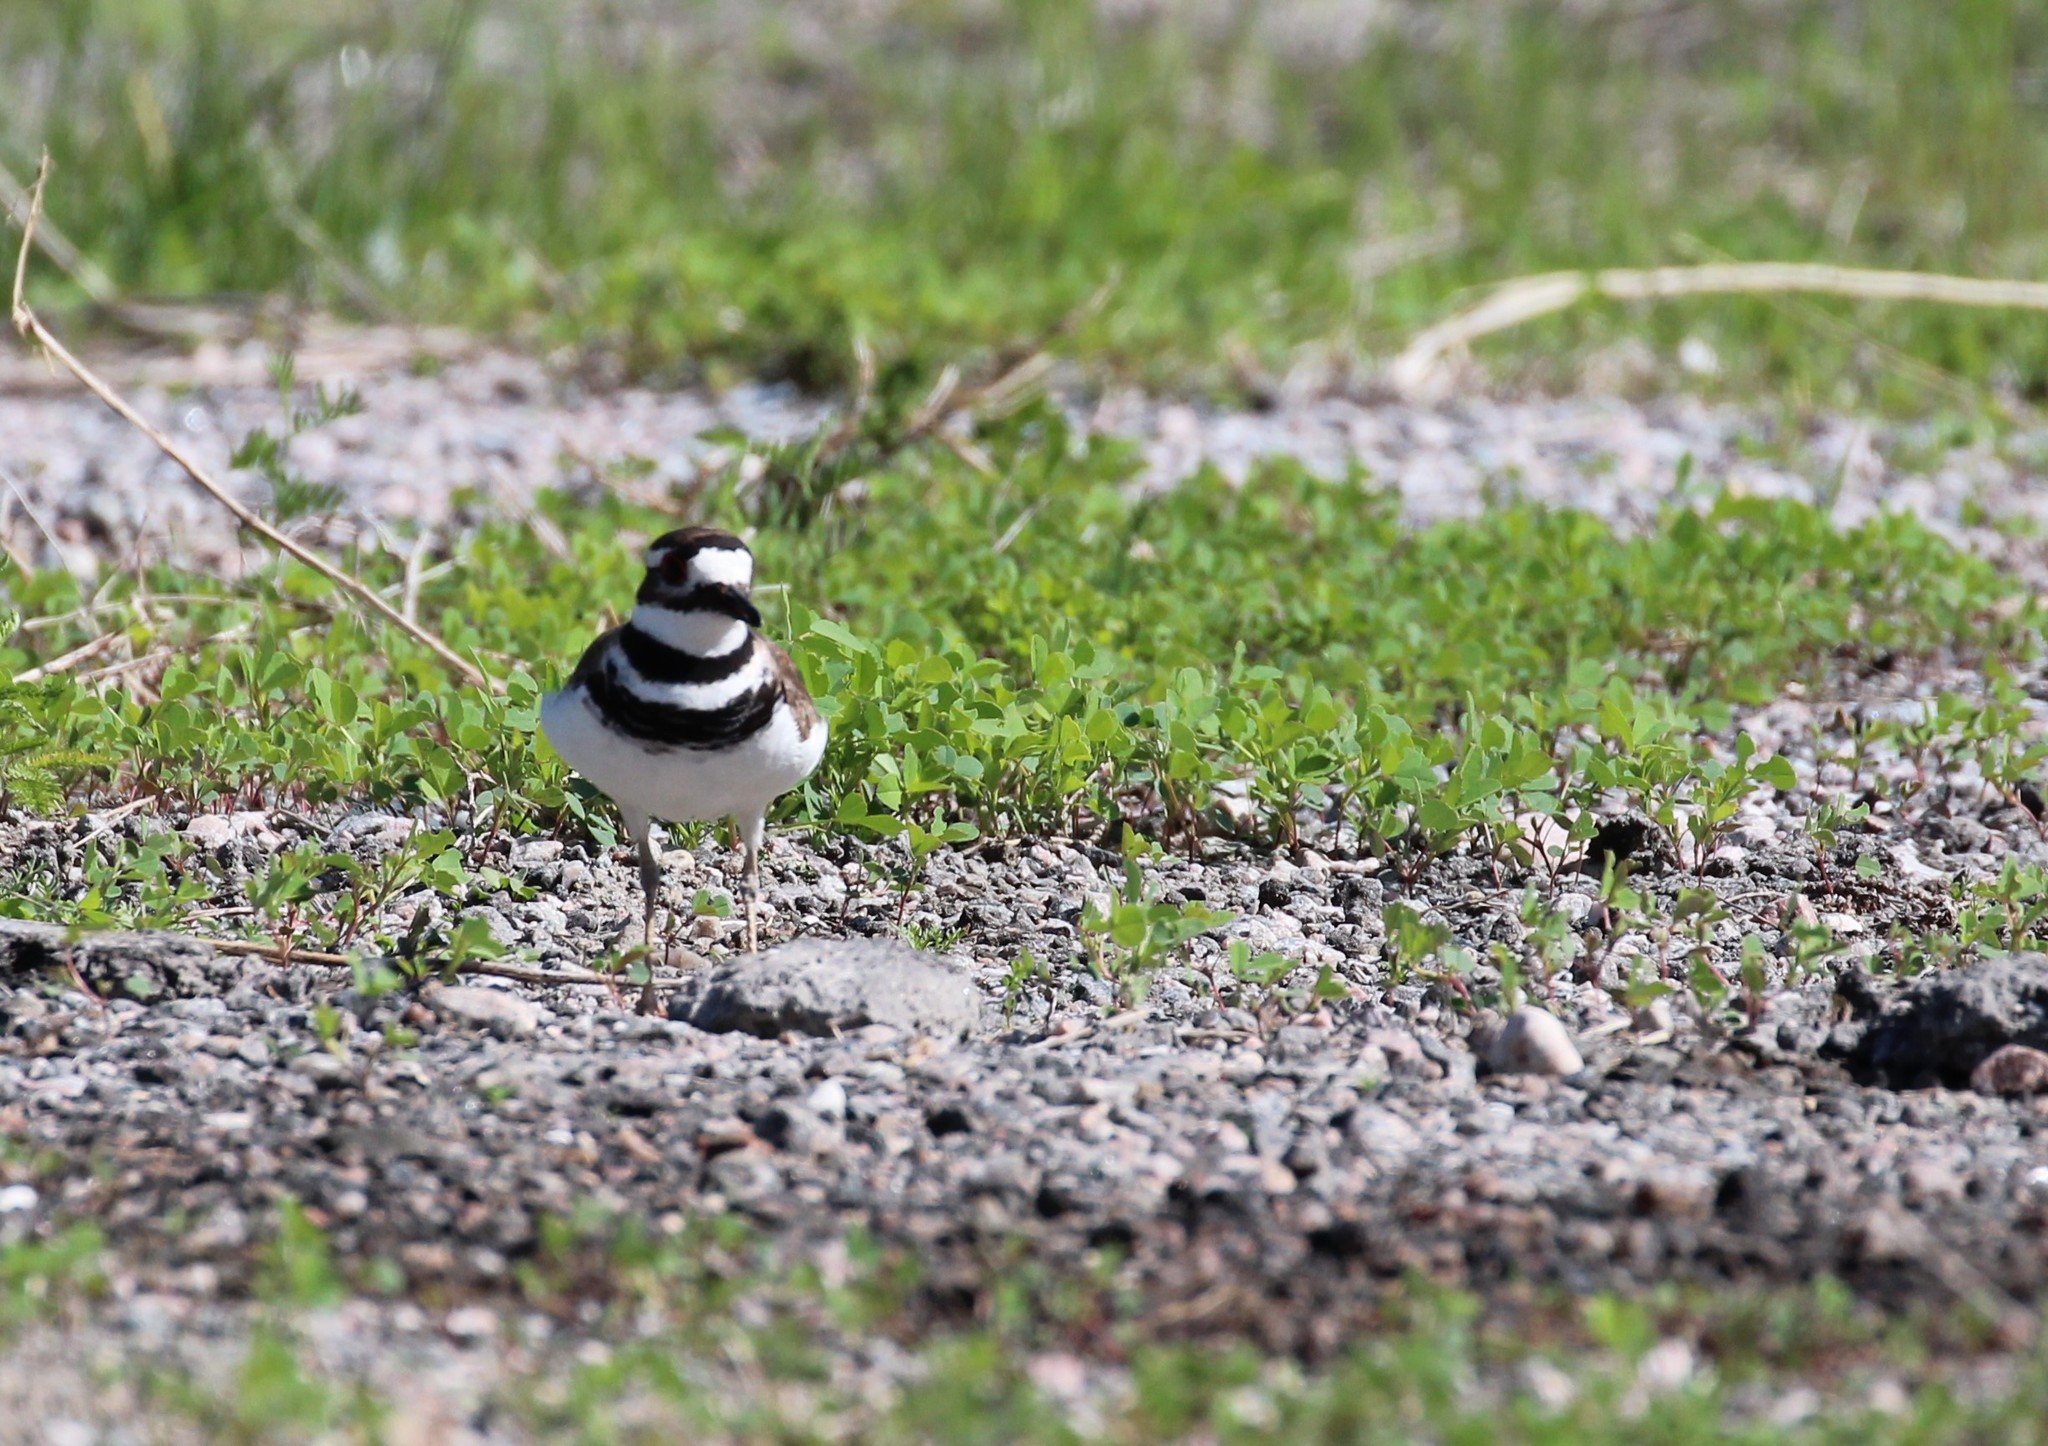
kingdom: Animalia
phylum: Chordata
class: Aves
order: Charadriiformes
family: Charadriidae
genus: Charadrius
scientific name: Charadrius vociferus
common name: Killdeer
